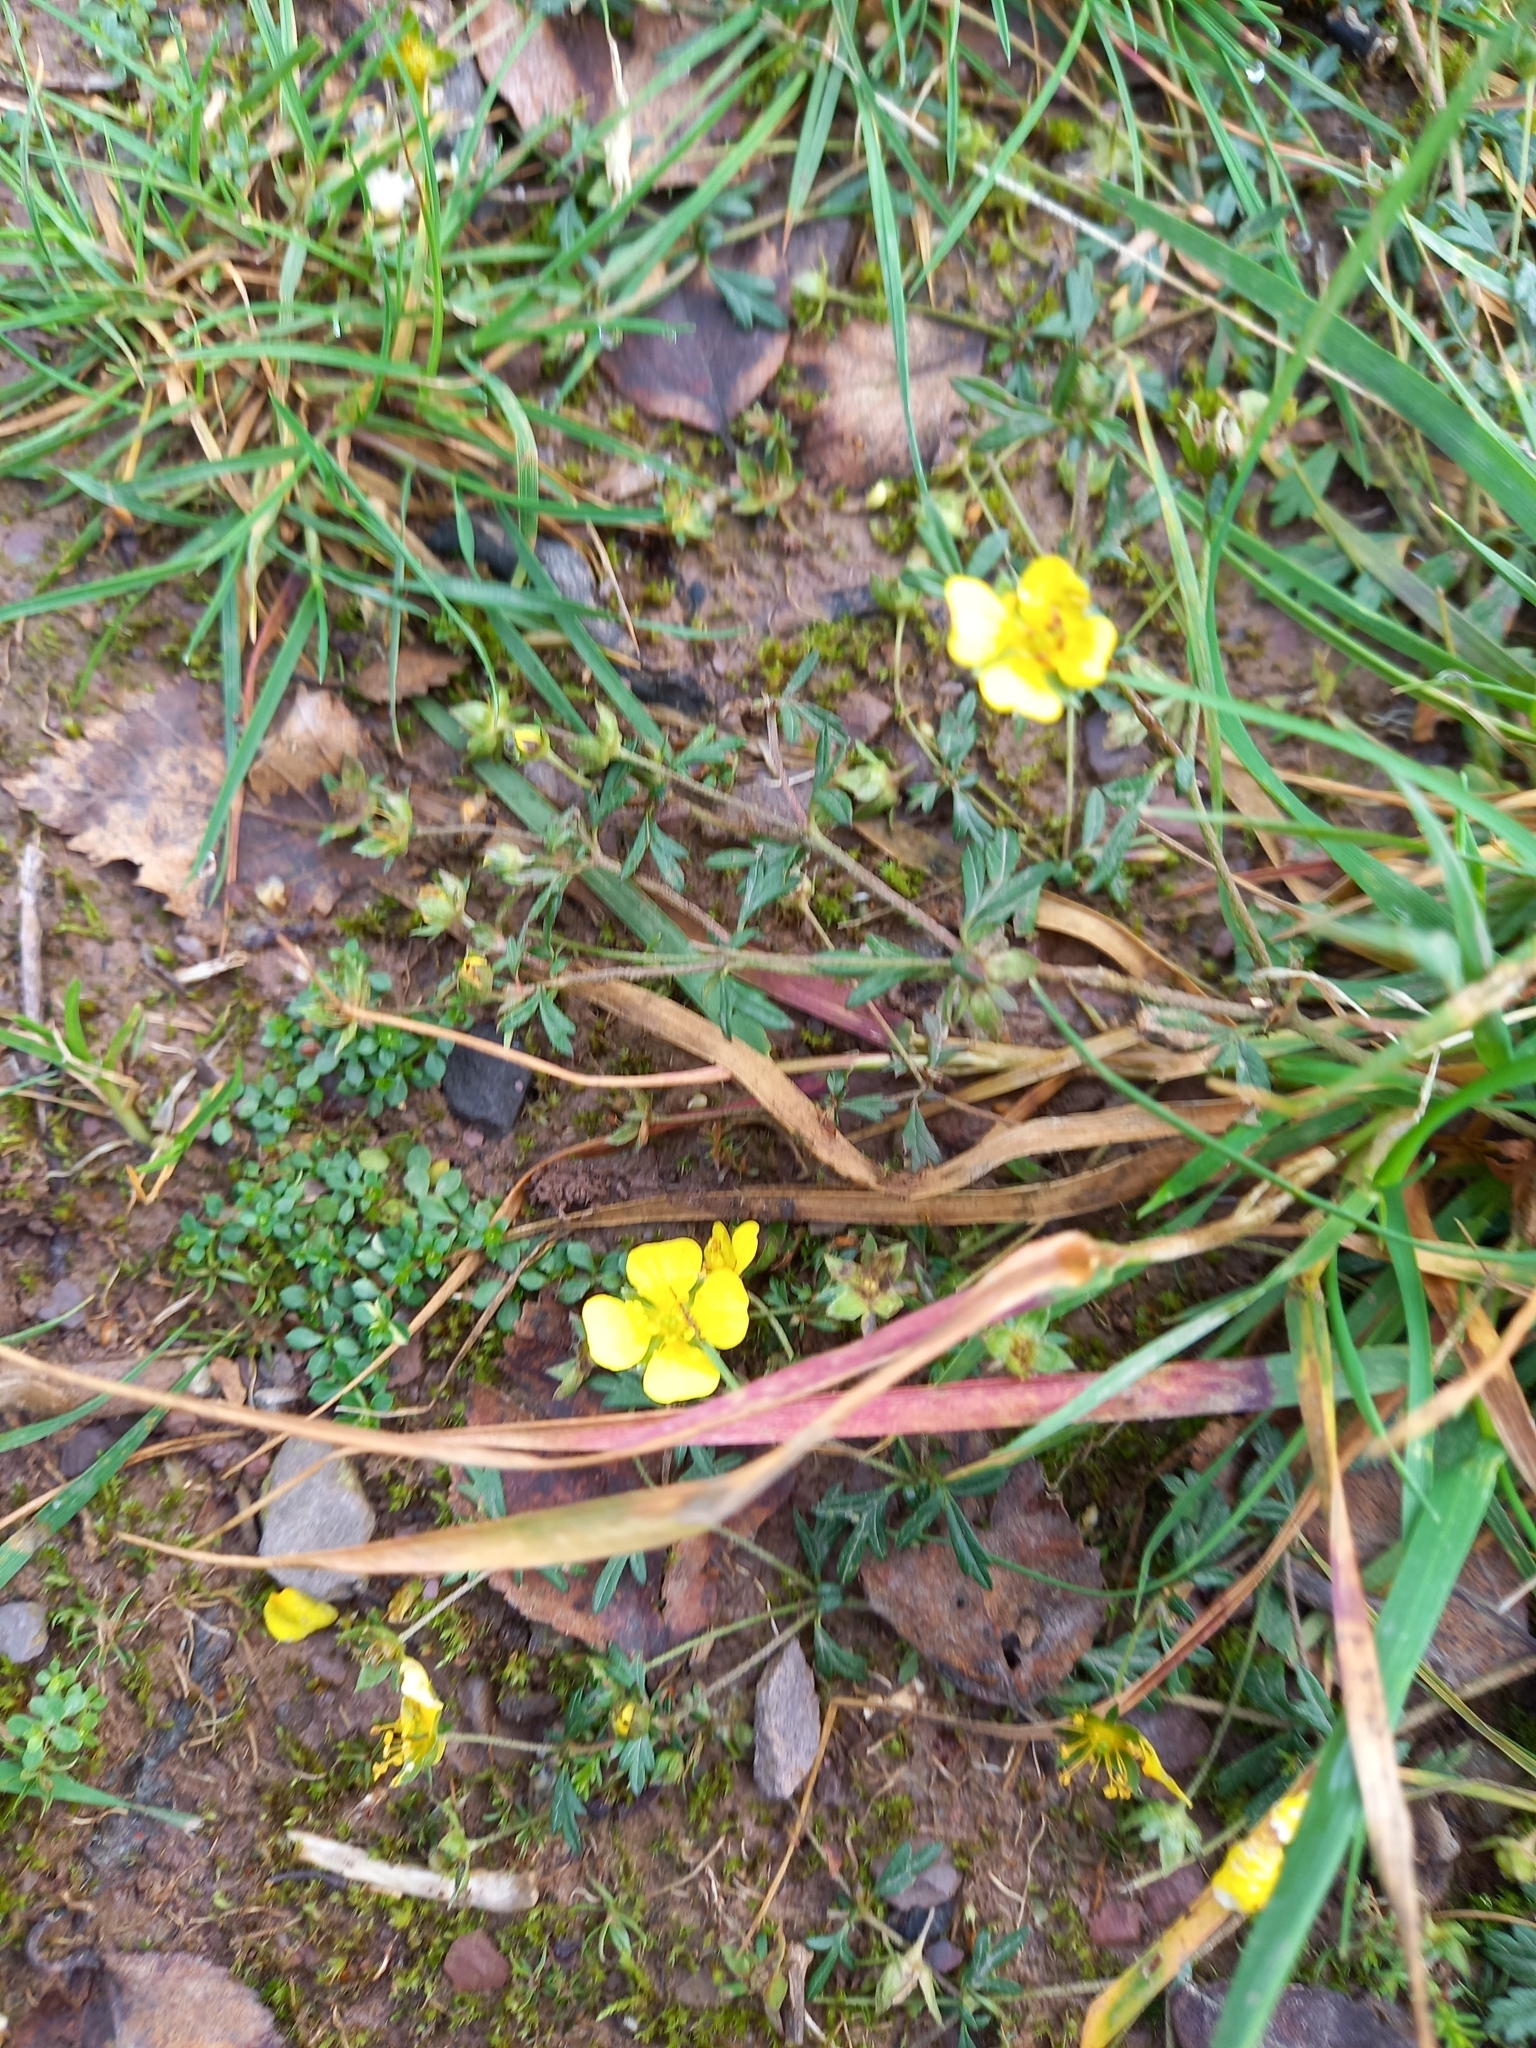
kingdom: Plantae
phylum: Tracheophyta
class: Magnoliopsida
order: Rosales
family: Rosaceae
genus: Potentilla
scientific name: Potentilla erecta
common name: Tormentil
